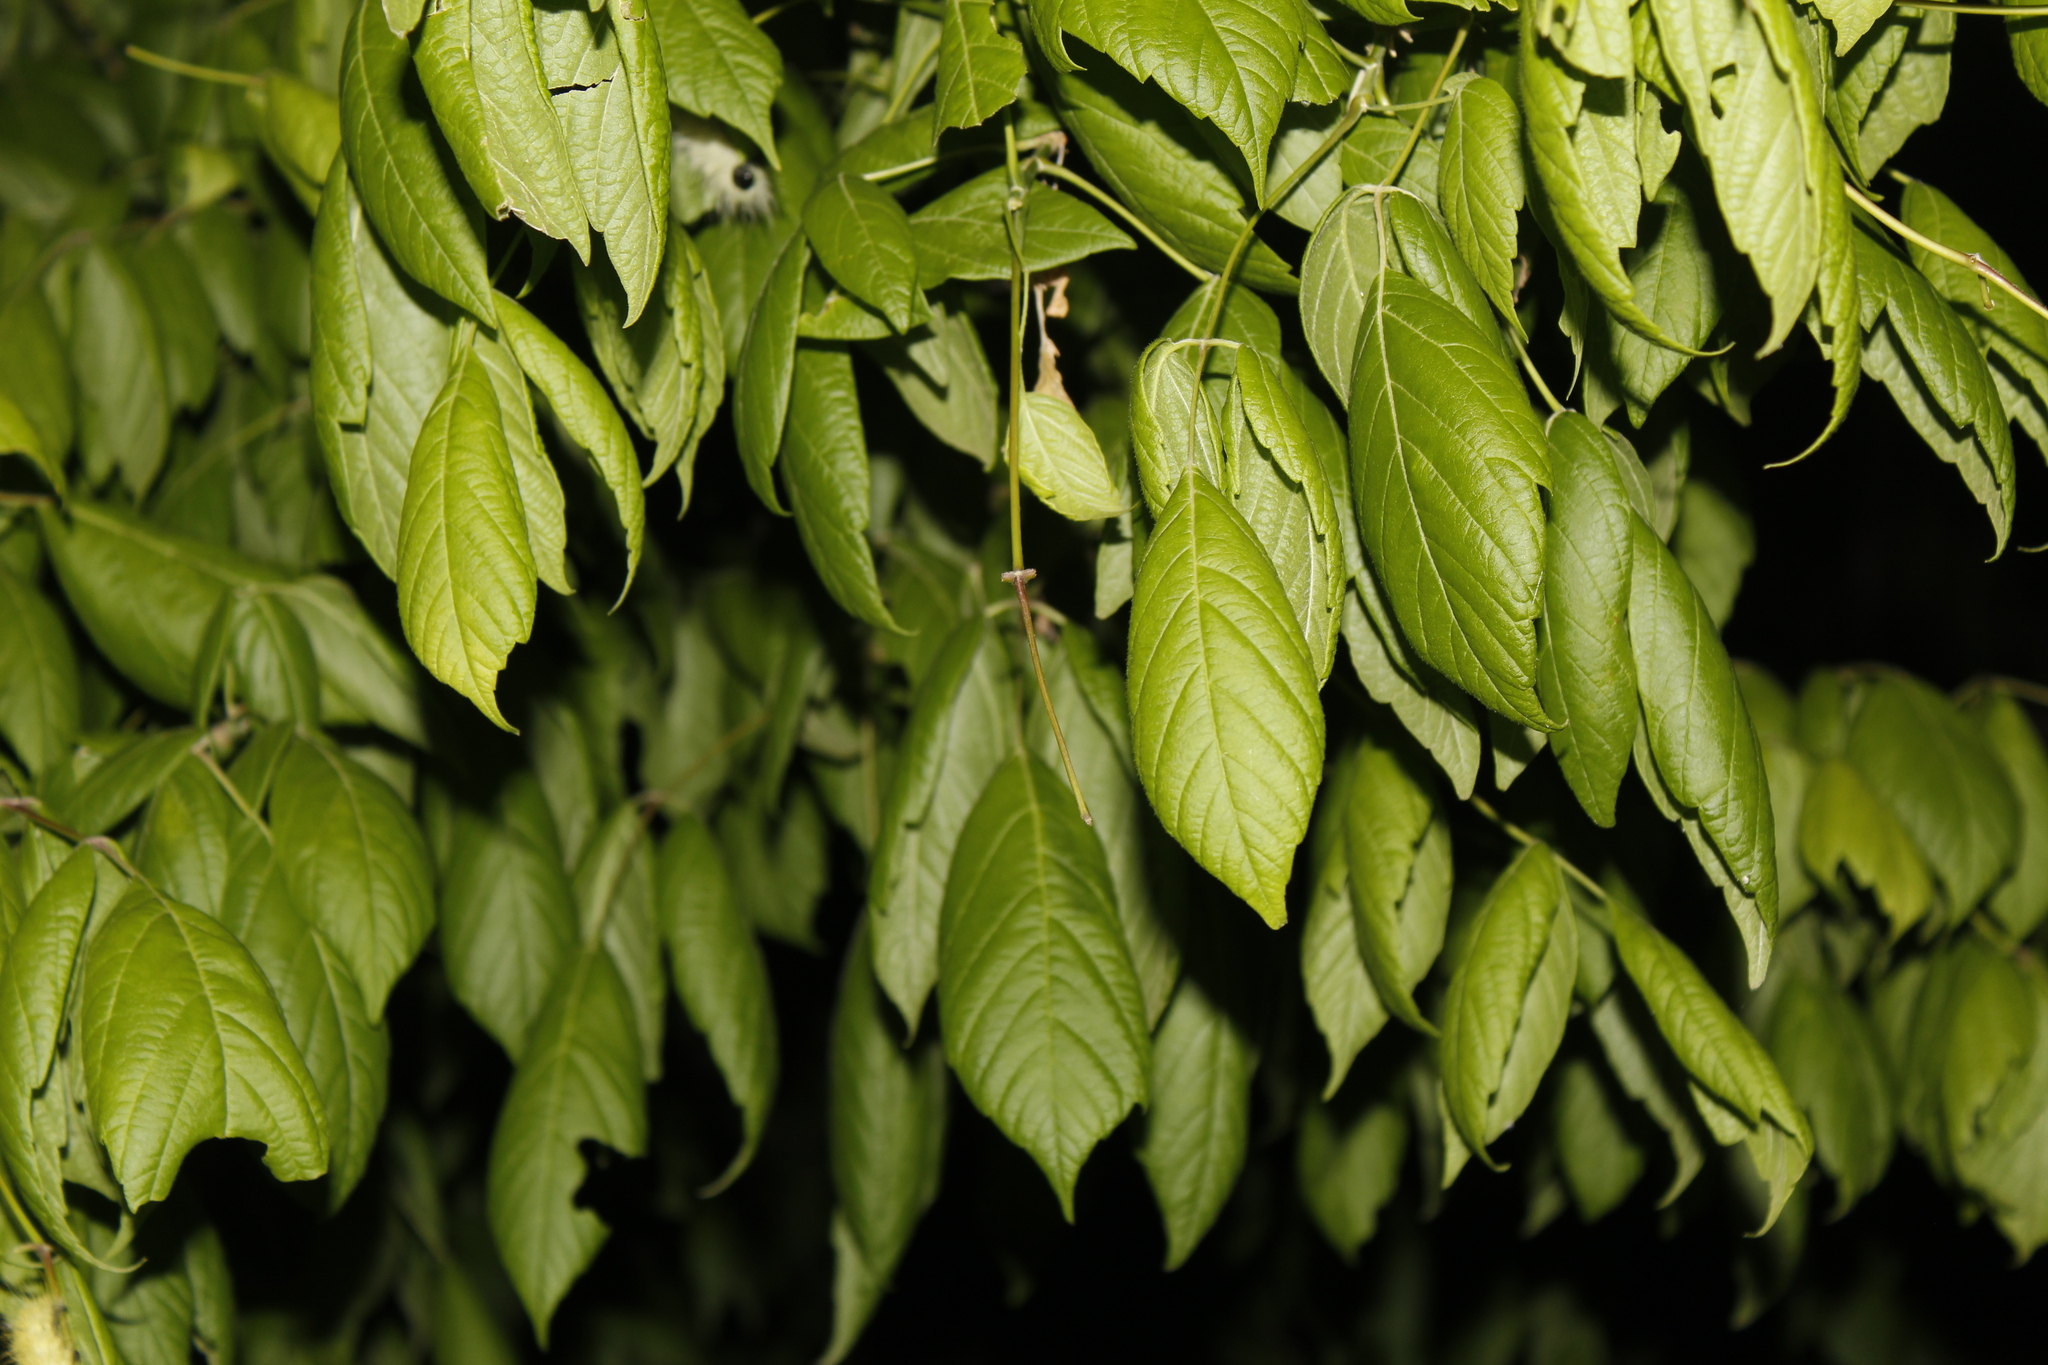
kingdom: Plantae
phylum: Tracheophyta
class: Magnoliopsida
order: Sapindales
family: Sapindaceae
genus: Acer
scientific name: Acer negundo
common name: Ashleaf maple
